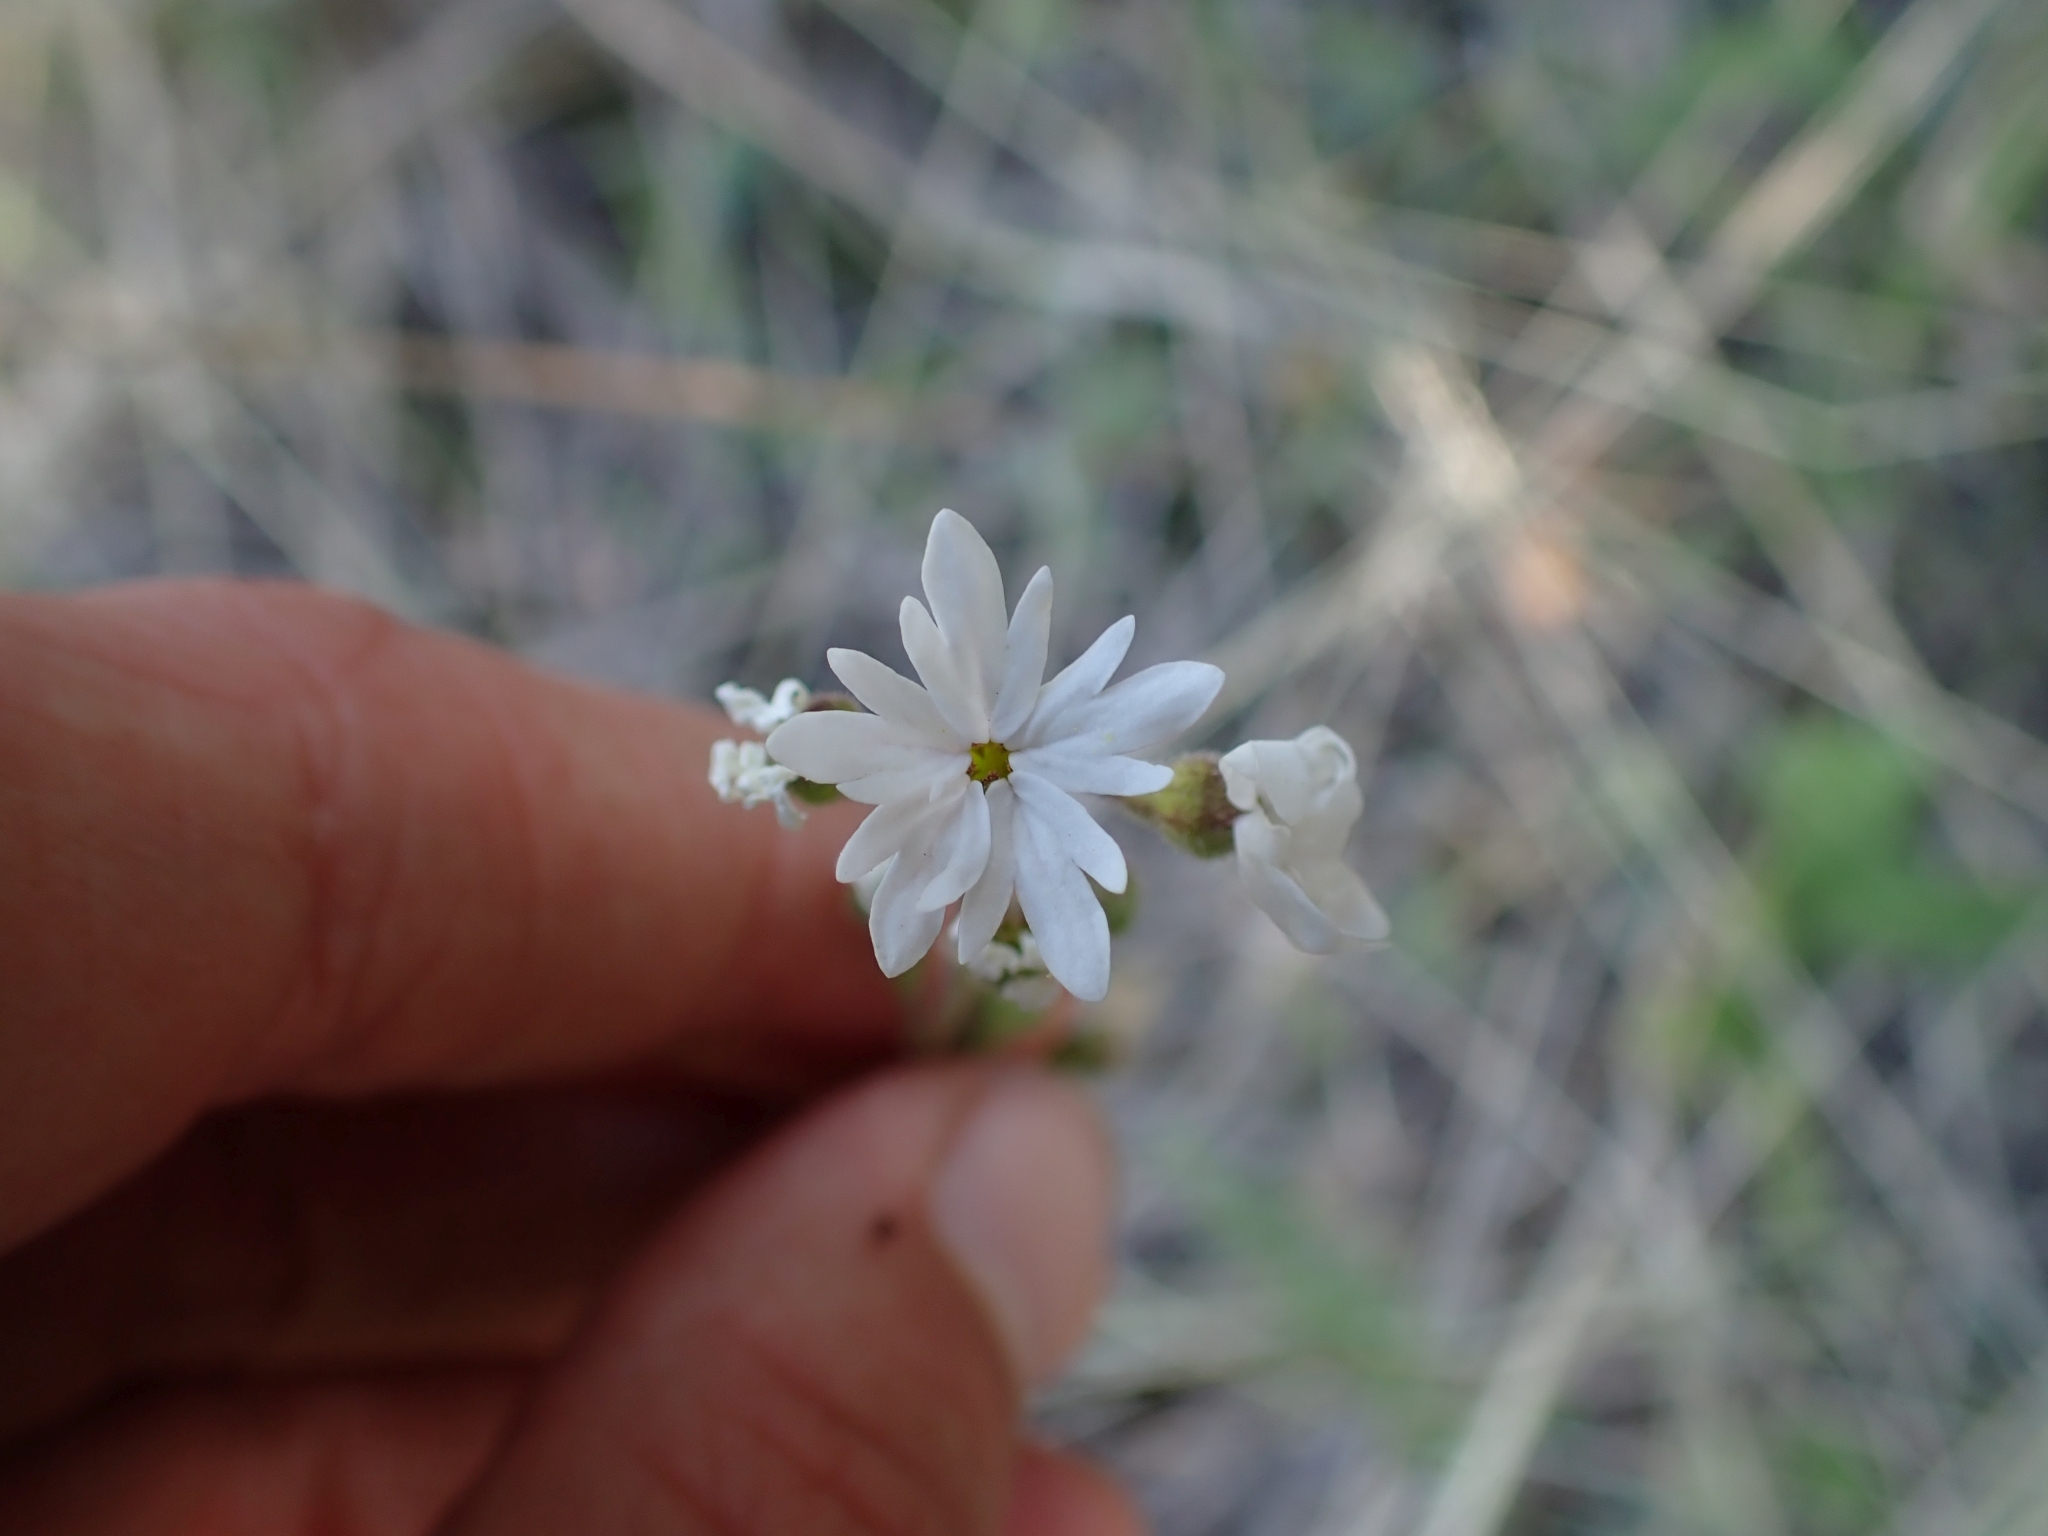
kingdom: Plantae
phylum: Tracheophyta
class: Magnoliopsida
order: Saxifragales
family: Saxifragaceae
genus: Lithophragma
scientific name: Lithophragma parviflorum
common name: Small-flowered fringe-cup
